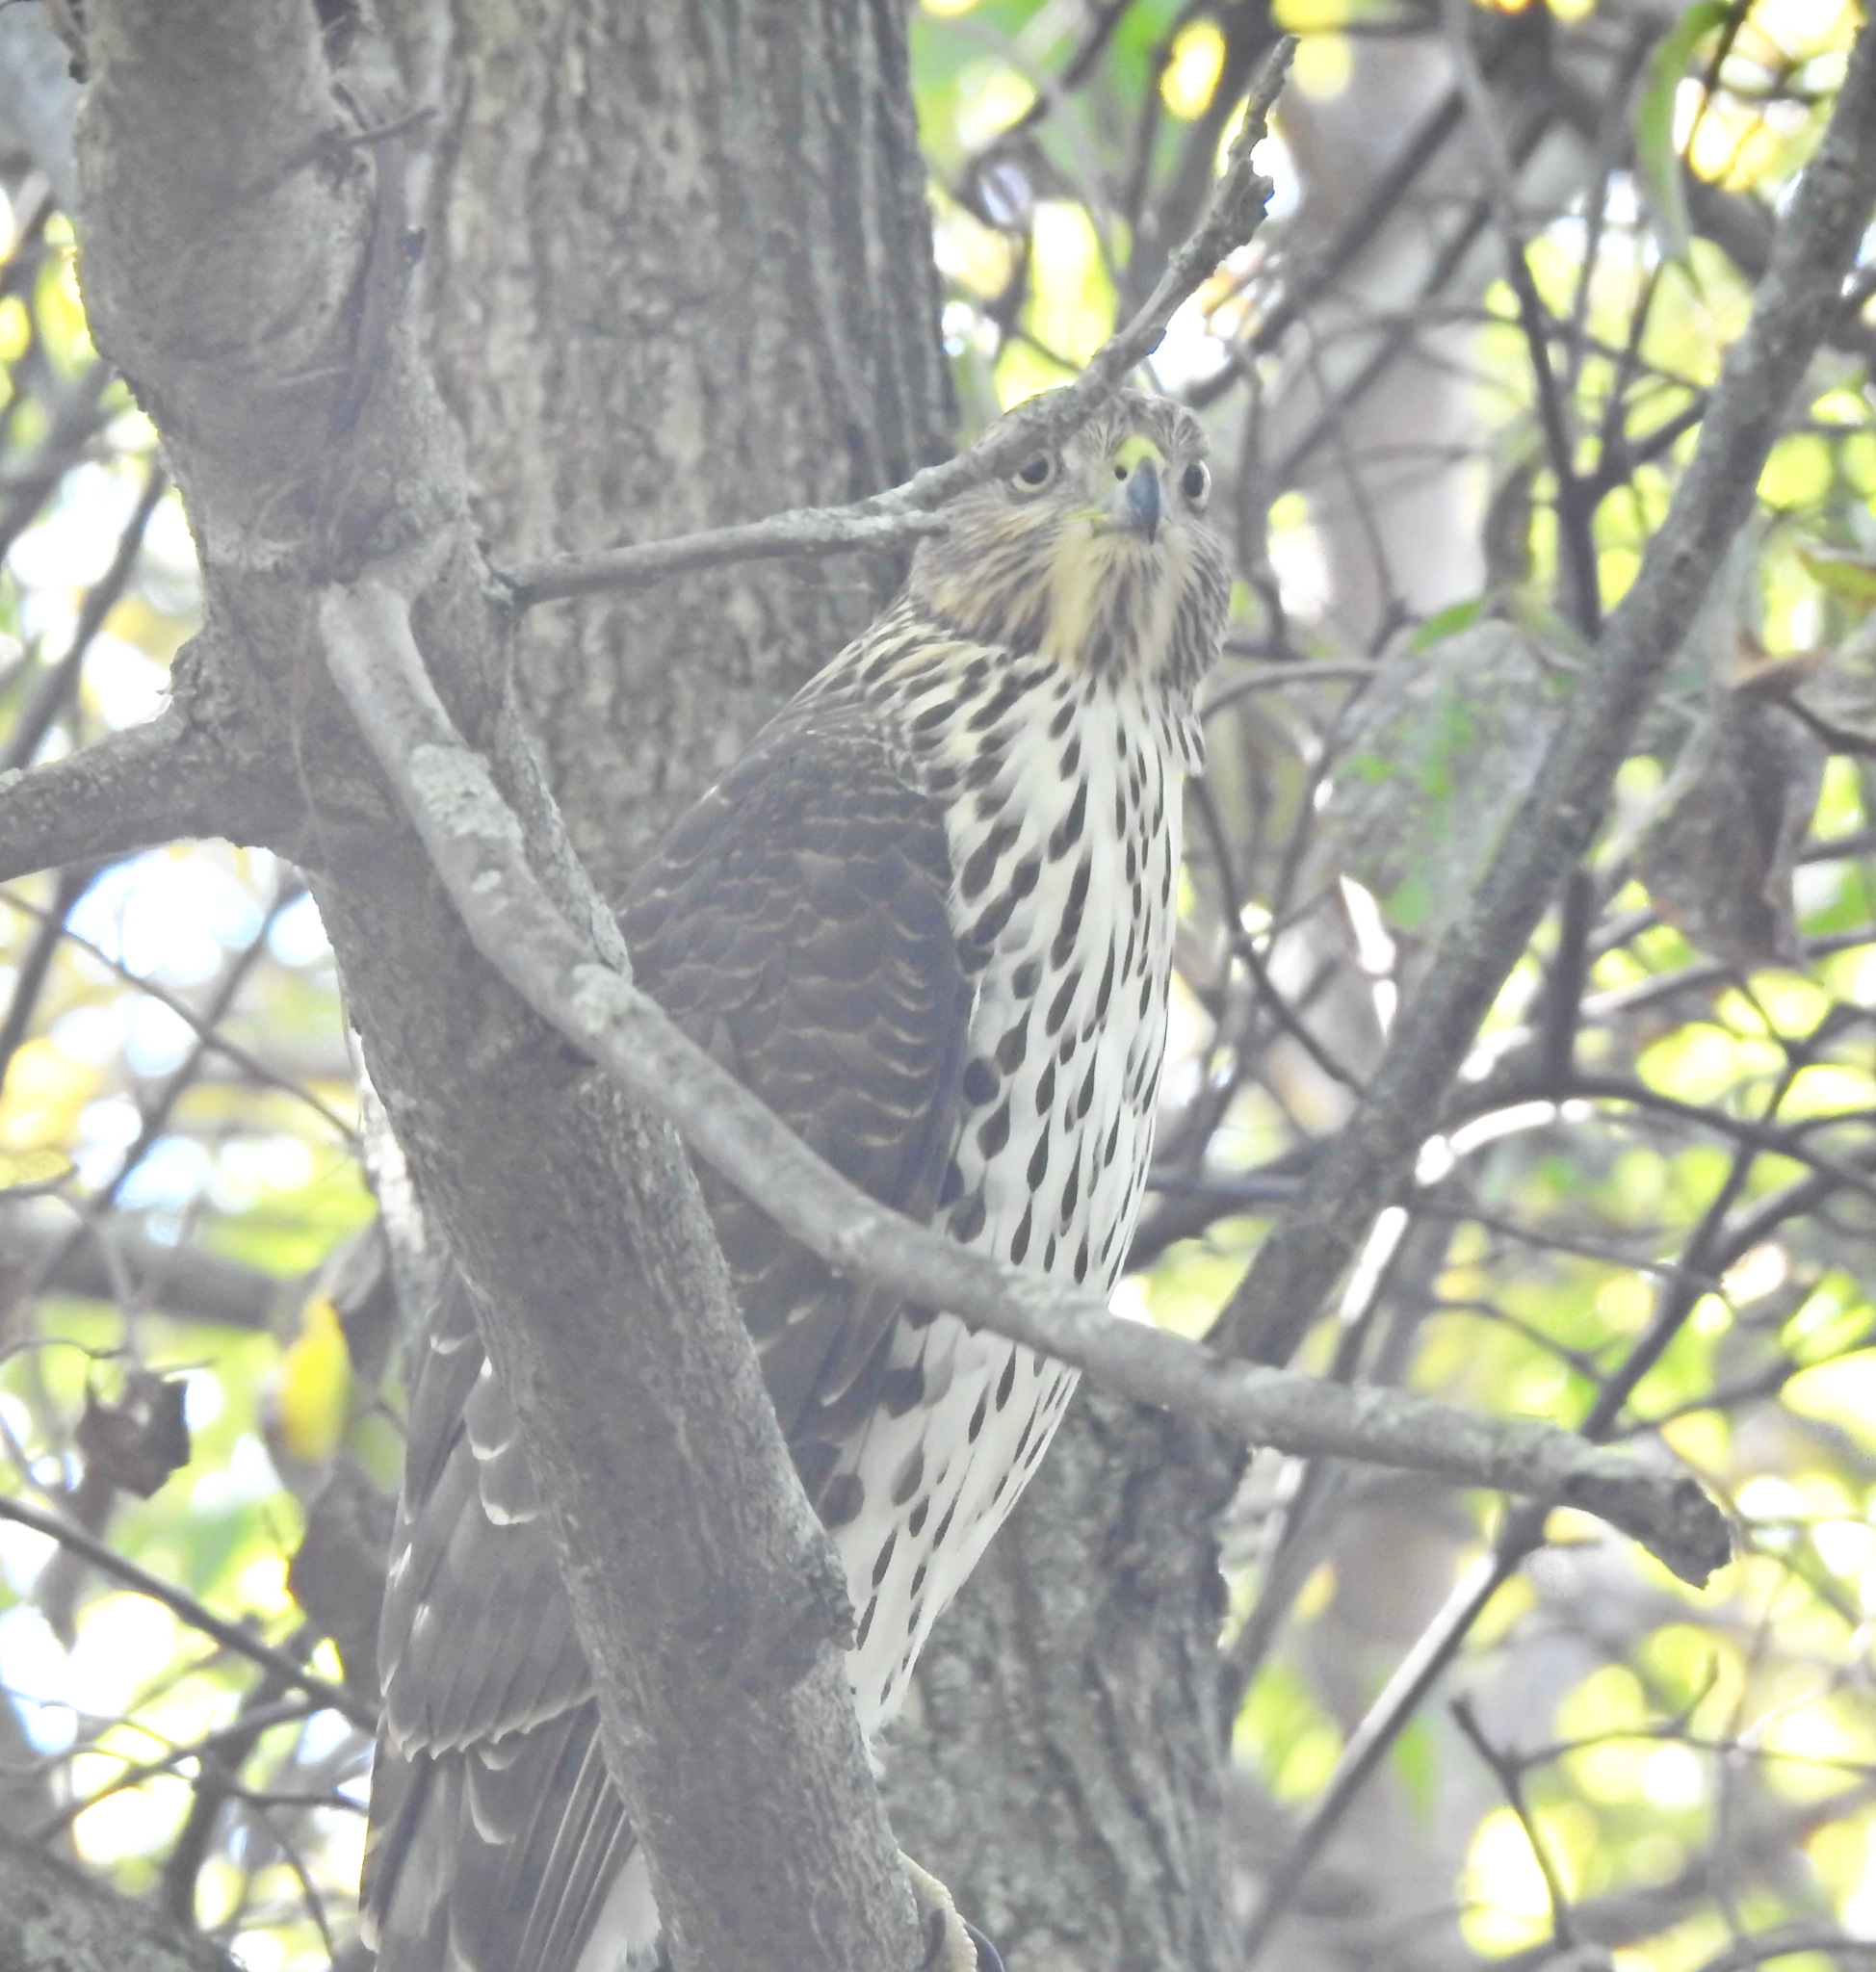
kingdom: Animalia
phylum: Chordata
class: Aves
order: Accipitriformes
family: Accipitridae
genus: Accipiter
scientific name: Accipiter cooperii
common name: Cooper's hawk
